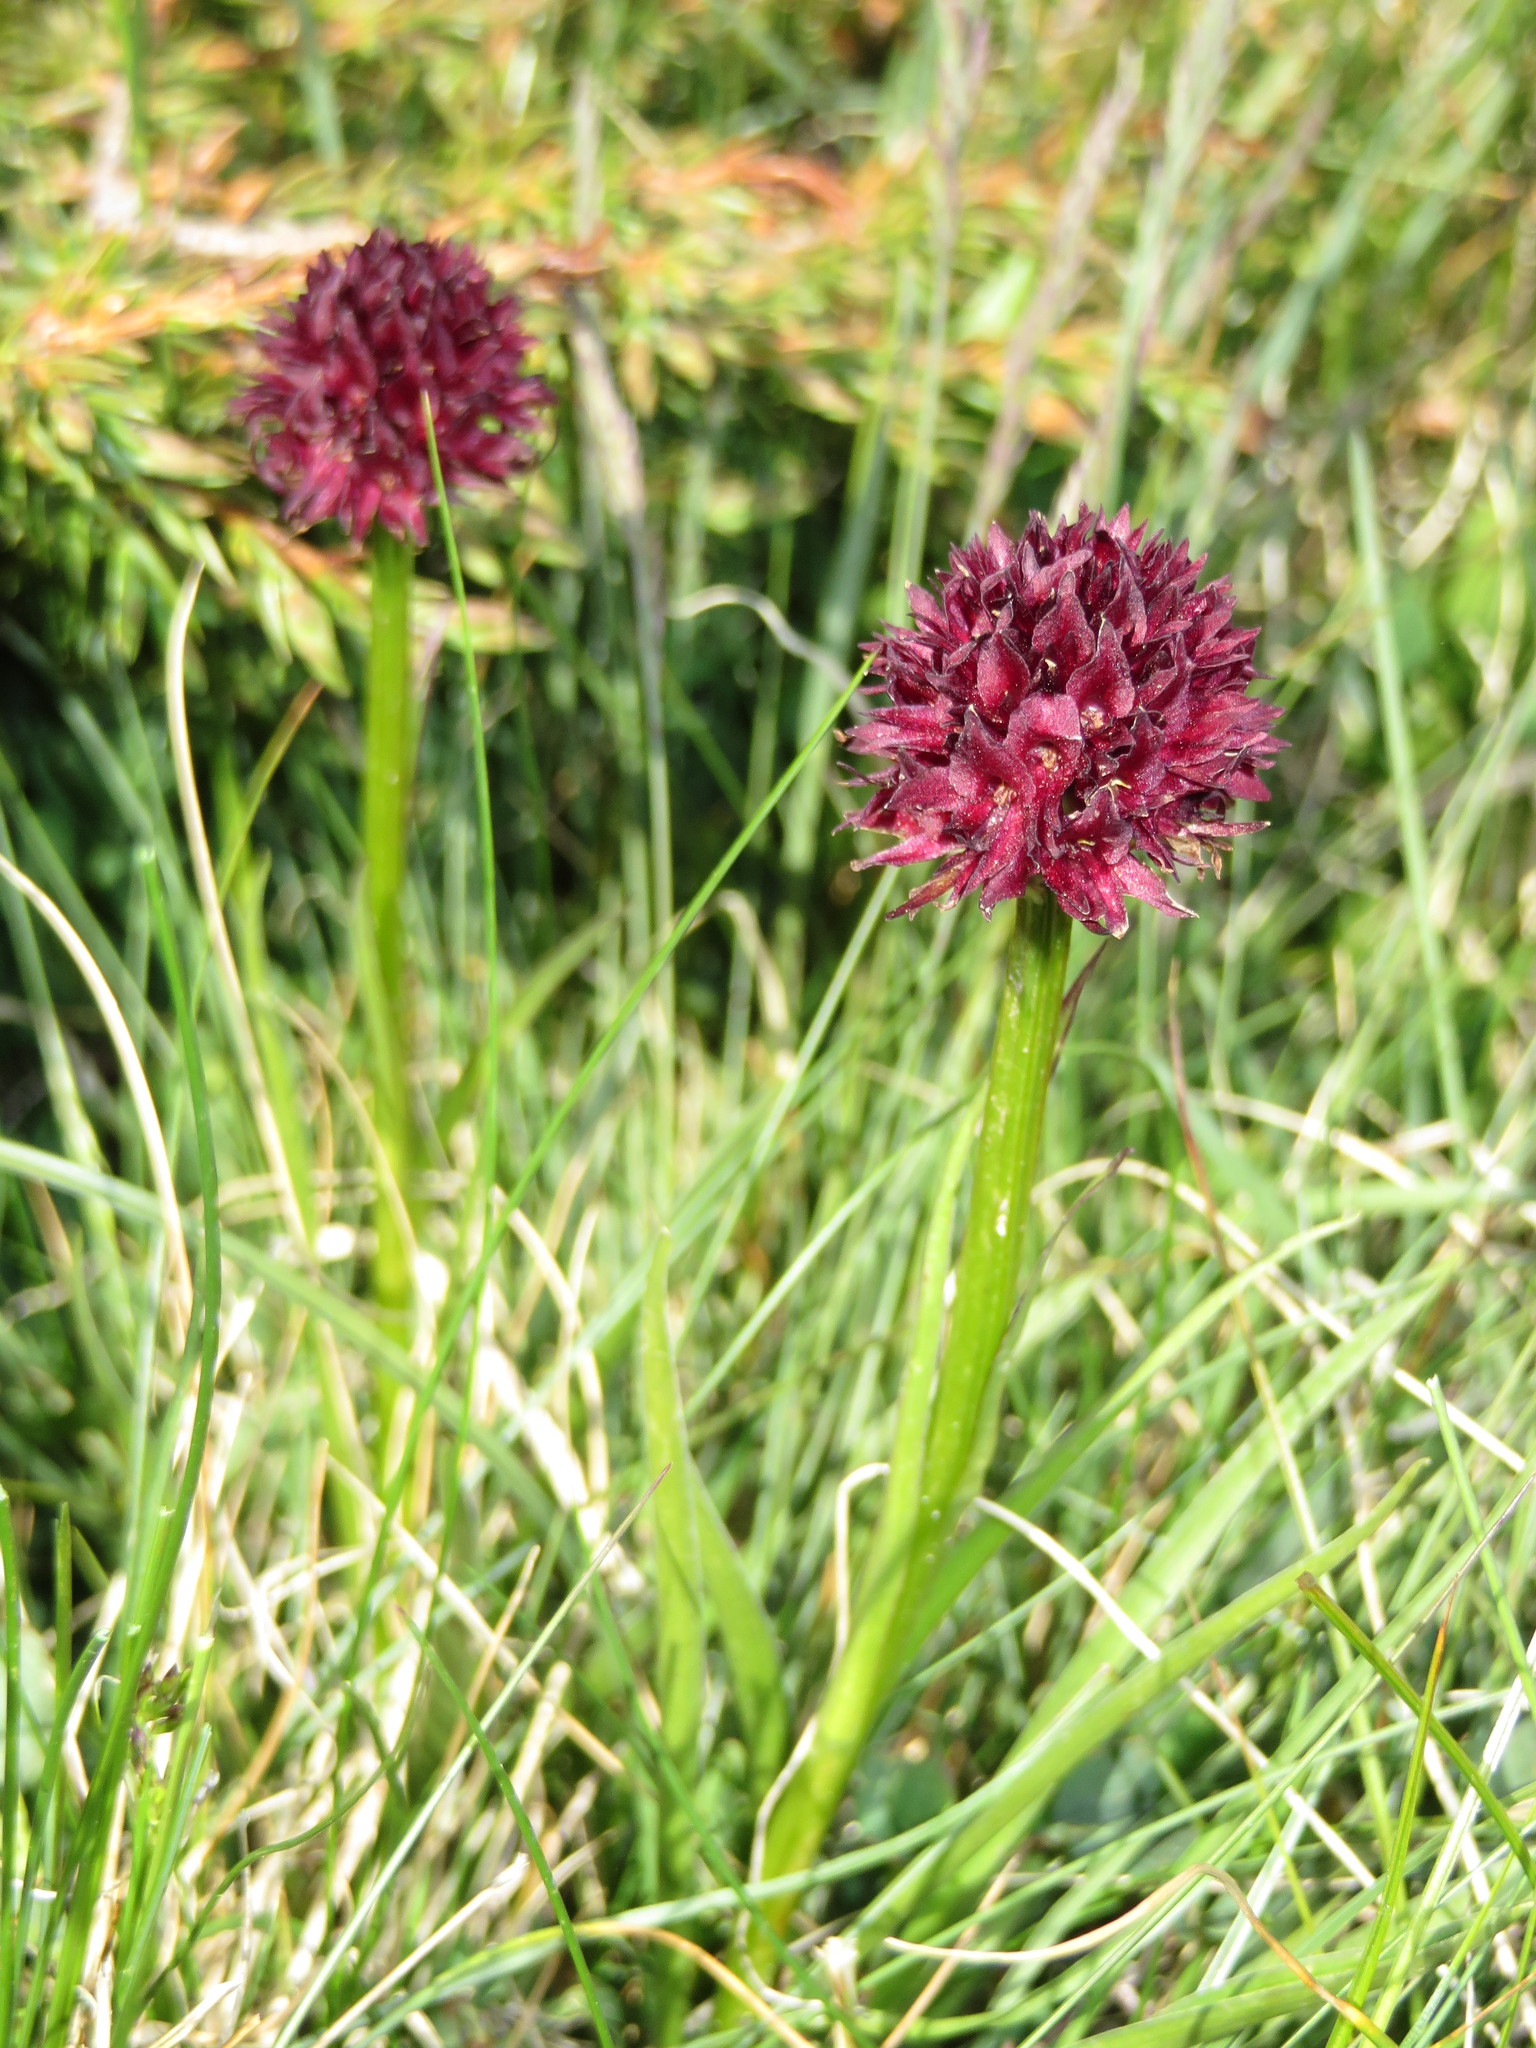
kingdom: Plantae
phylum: Tracheophyta
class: Liliopsida
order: Asparagales
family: Orchidaceae
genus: Gymnadenia
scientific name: Gymnadenia austriaca
